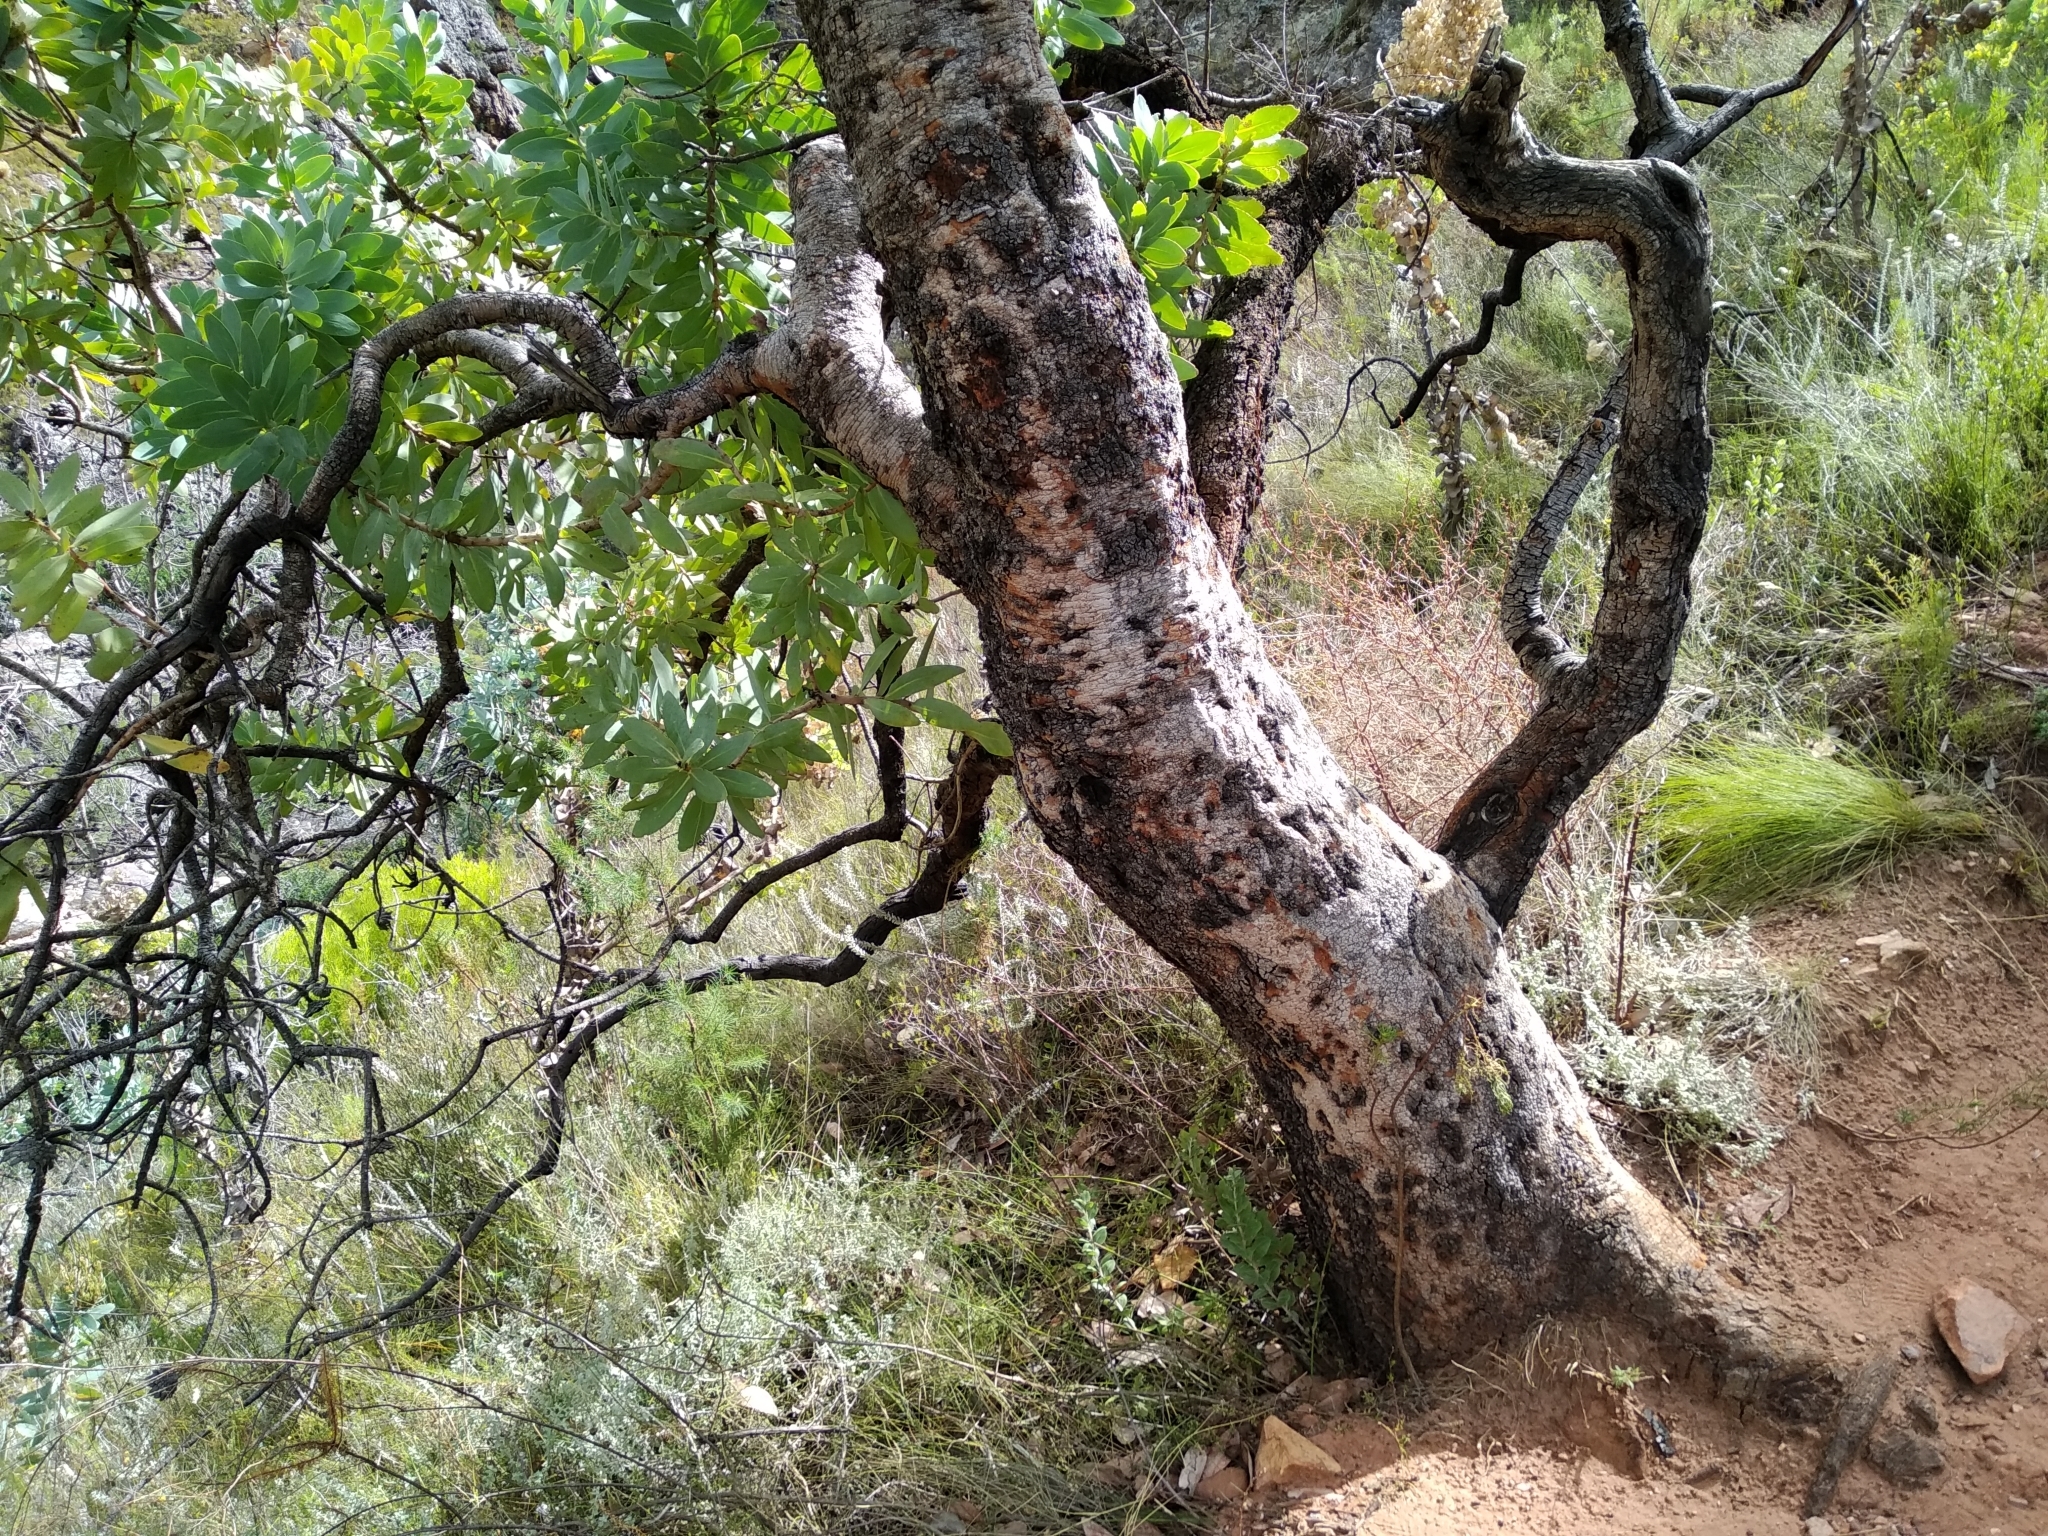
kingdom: Plantae
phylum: Tracheophyta
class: Magnoliopsida
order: Proteales
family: Proteaceae
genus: Protea
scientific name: Protea nitida
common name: Tree protea
